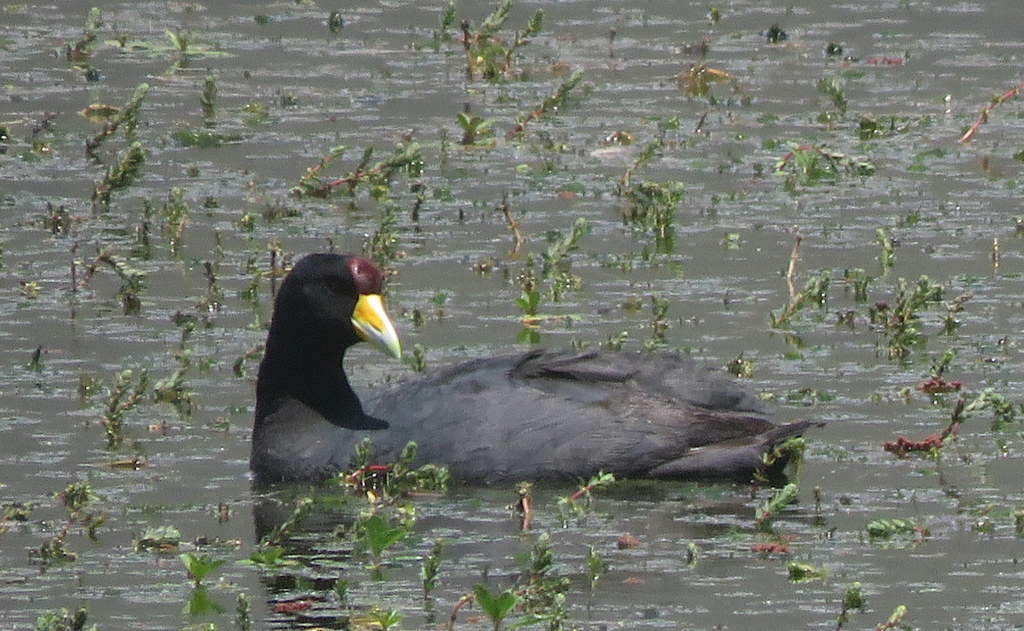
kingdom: Animalia
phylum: Chordata
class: Aves
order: Gruiformes
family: Rallidae
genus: Fulica
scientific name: Fulica ardesiaca
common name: Andean coot
